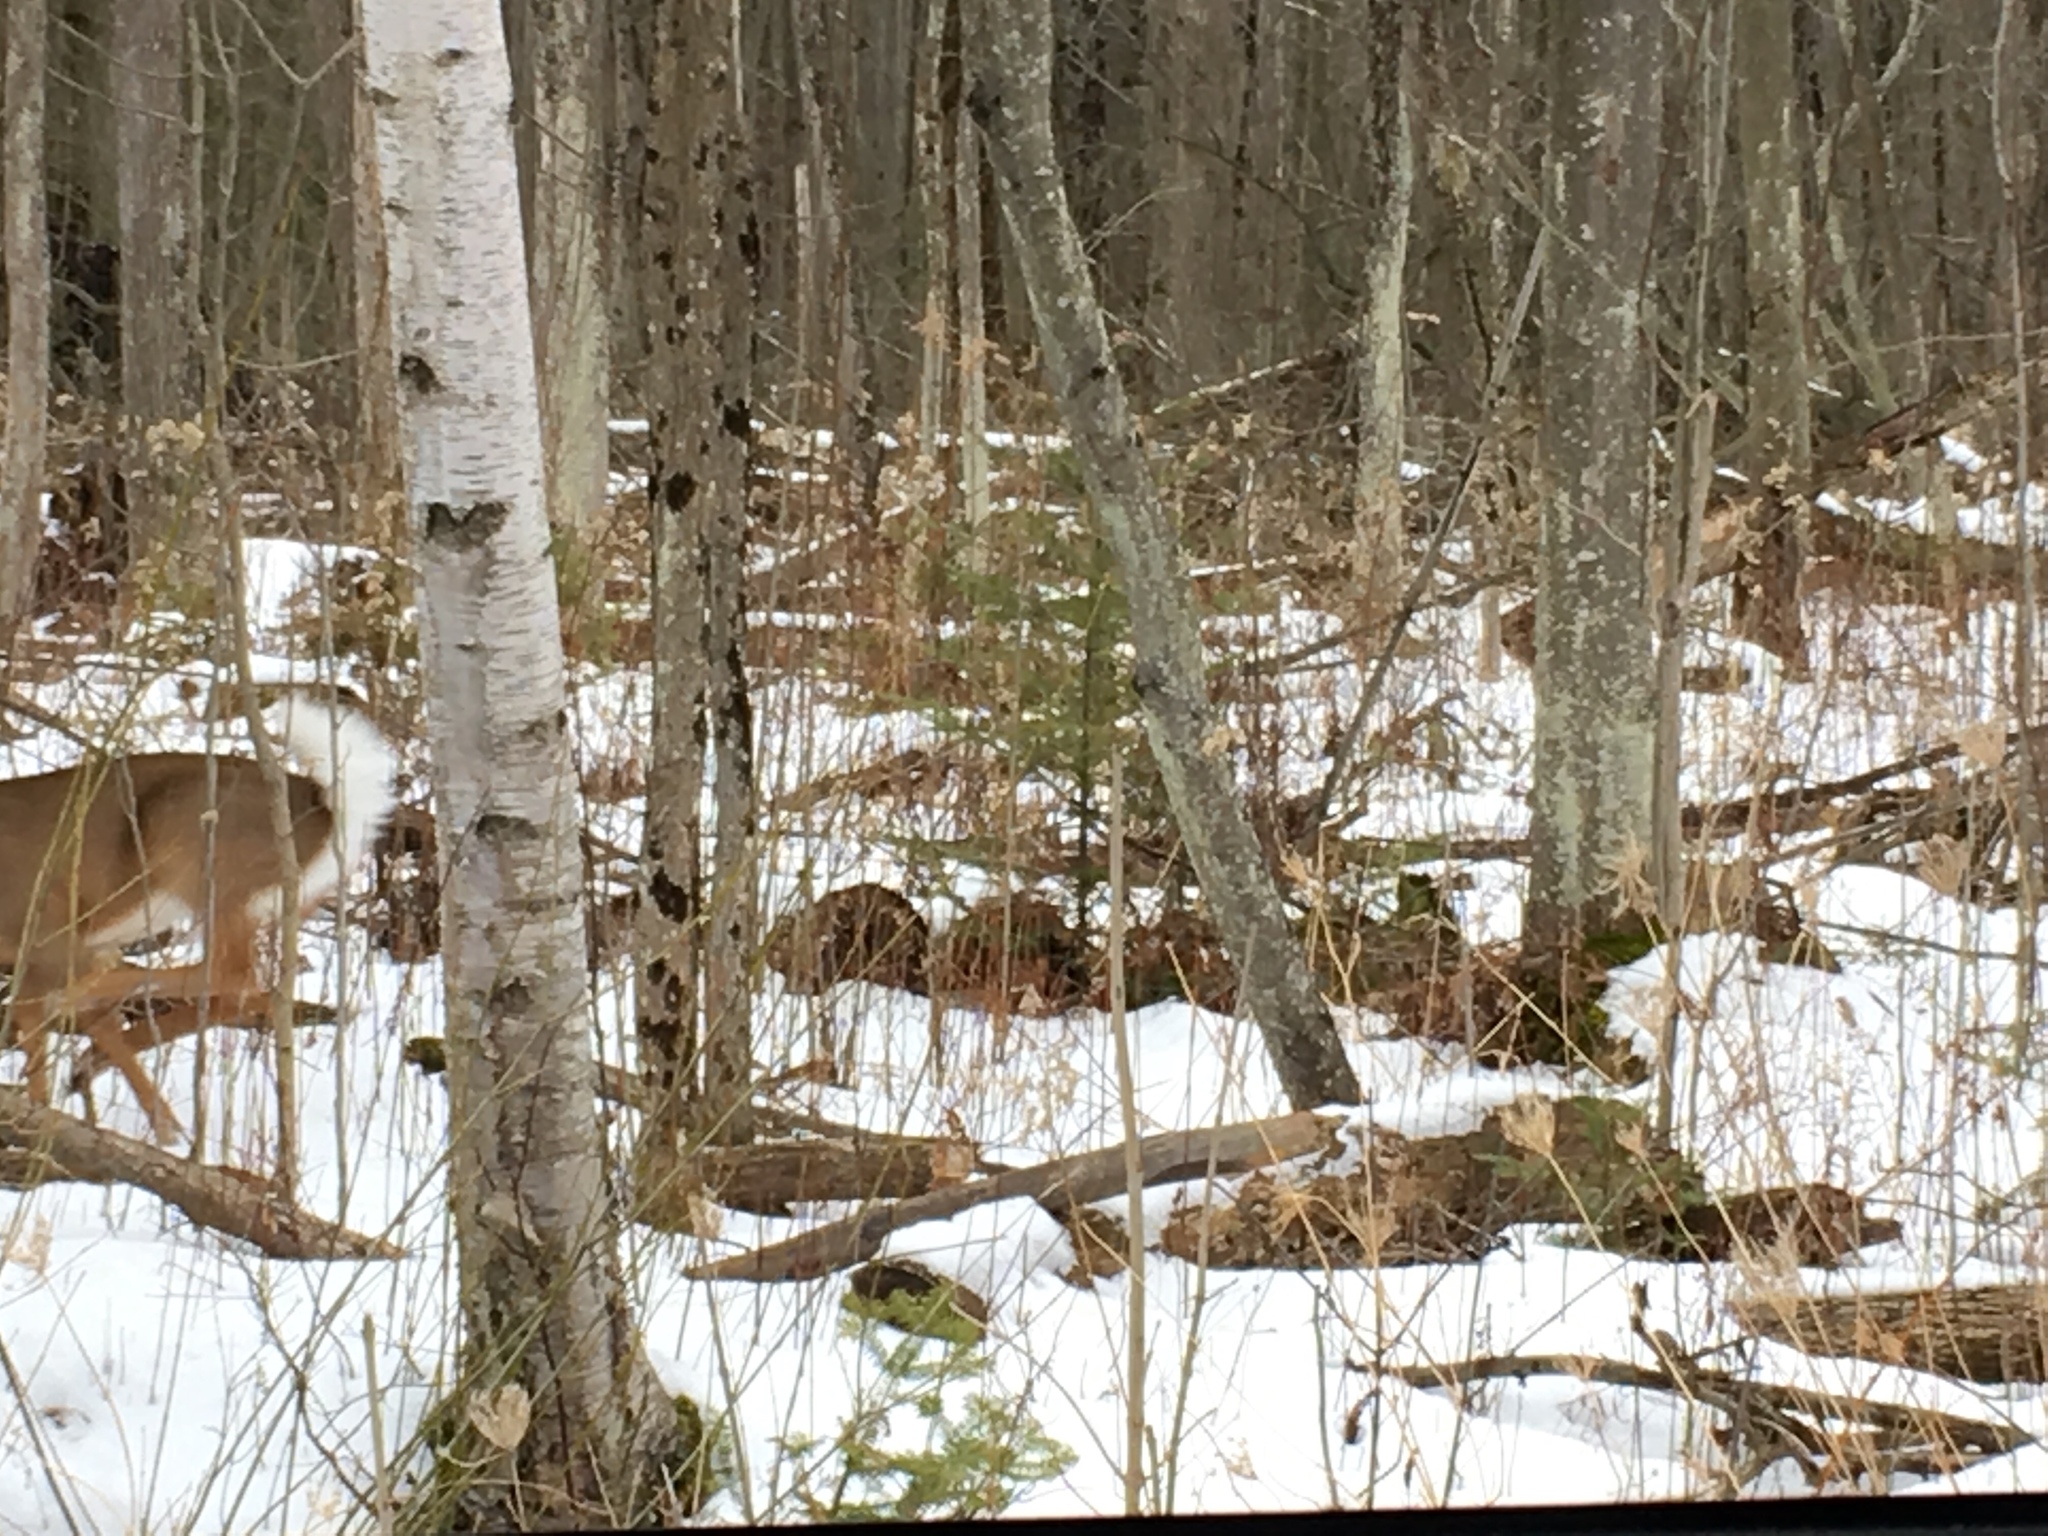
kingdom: Animalia
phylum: Chordata
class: Mammalia
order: Artiodactyla
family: Cervidae
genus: Odocoileus
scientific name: Odocoileus virginianus
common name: White-tailed deer
